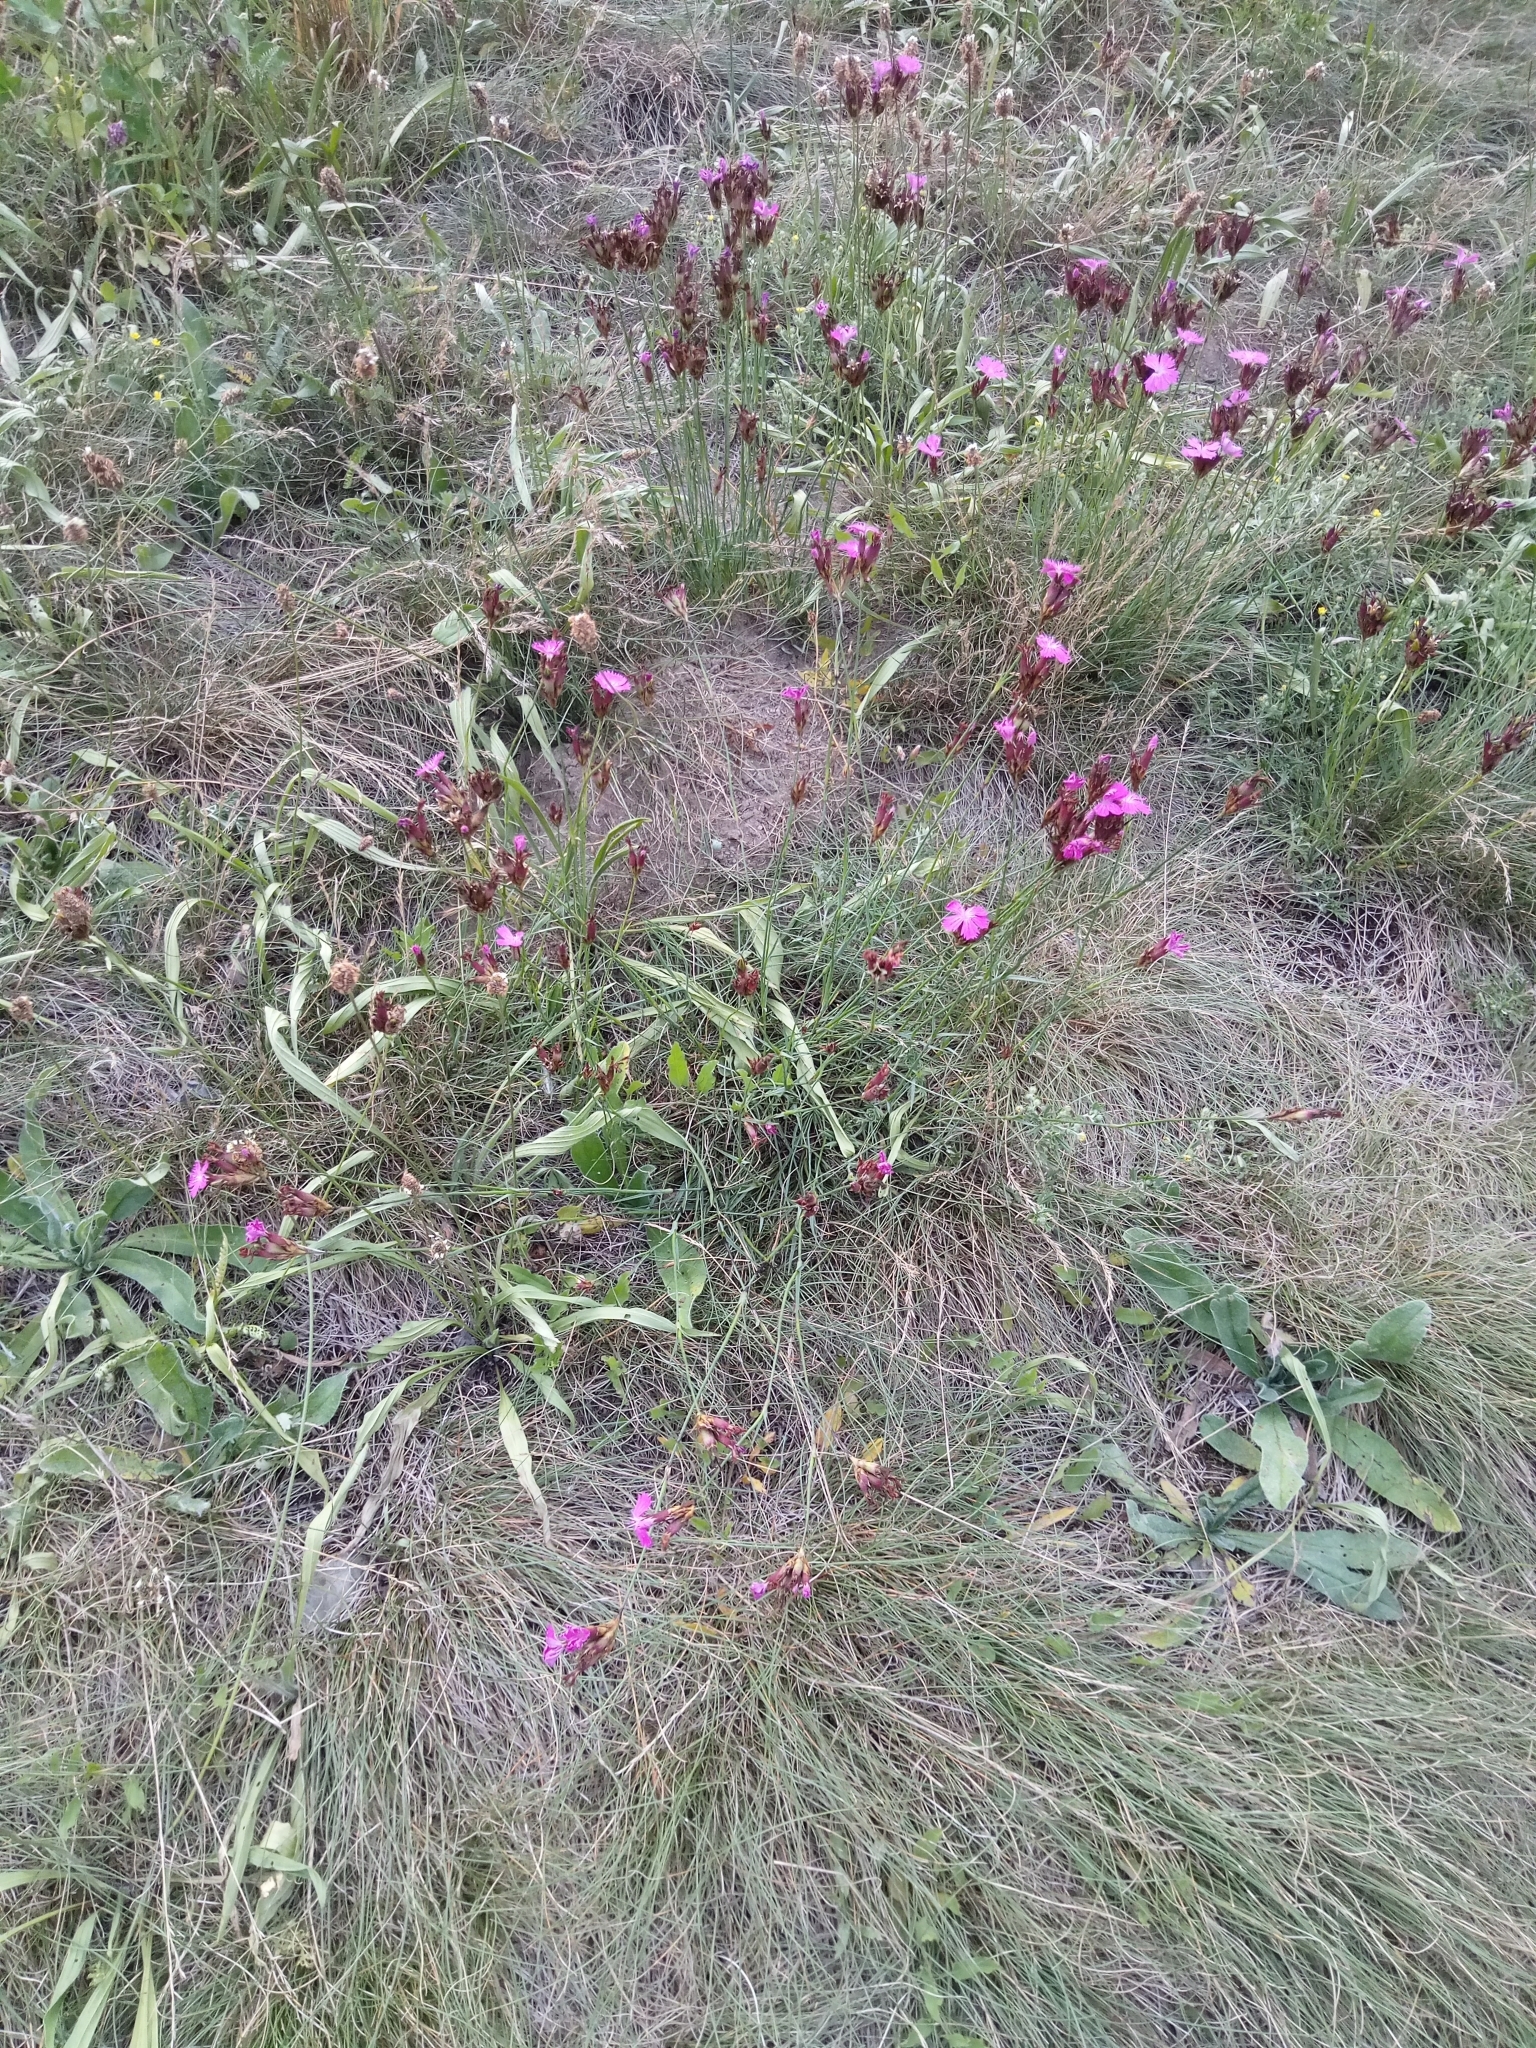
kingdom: Plantae
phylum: Tracheophyta
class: Magnoliopsida
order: Caryophyllales
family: Caryophyllaceae
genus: Dianthus
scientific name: Dianthus carthusianorum
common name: Carthusian pink
